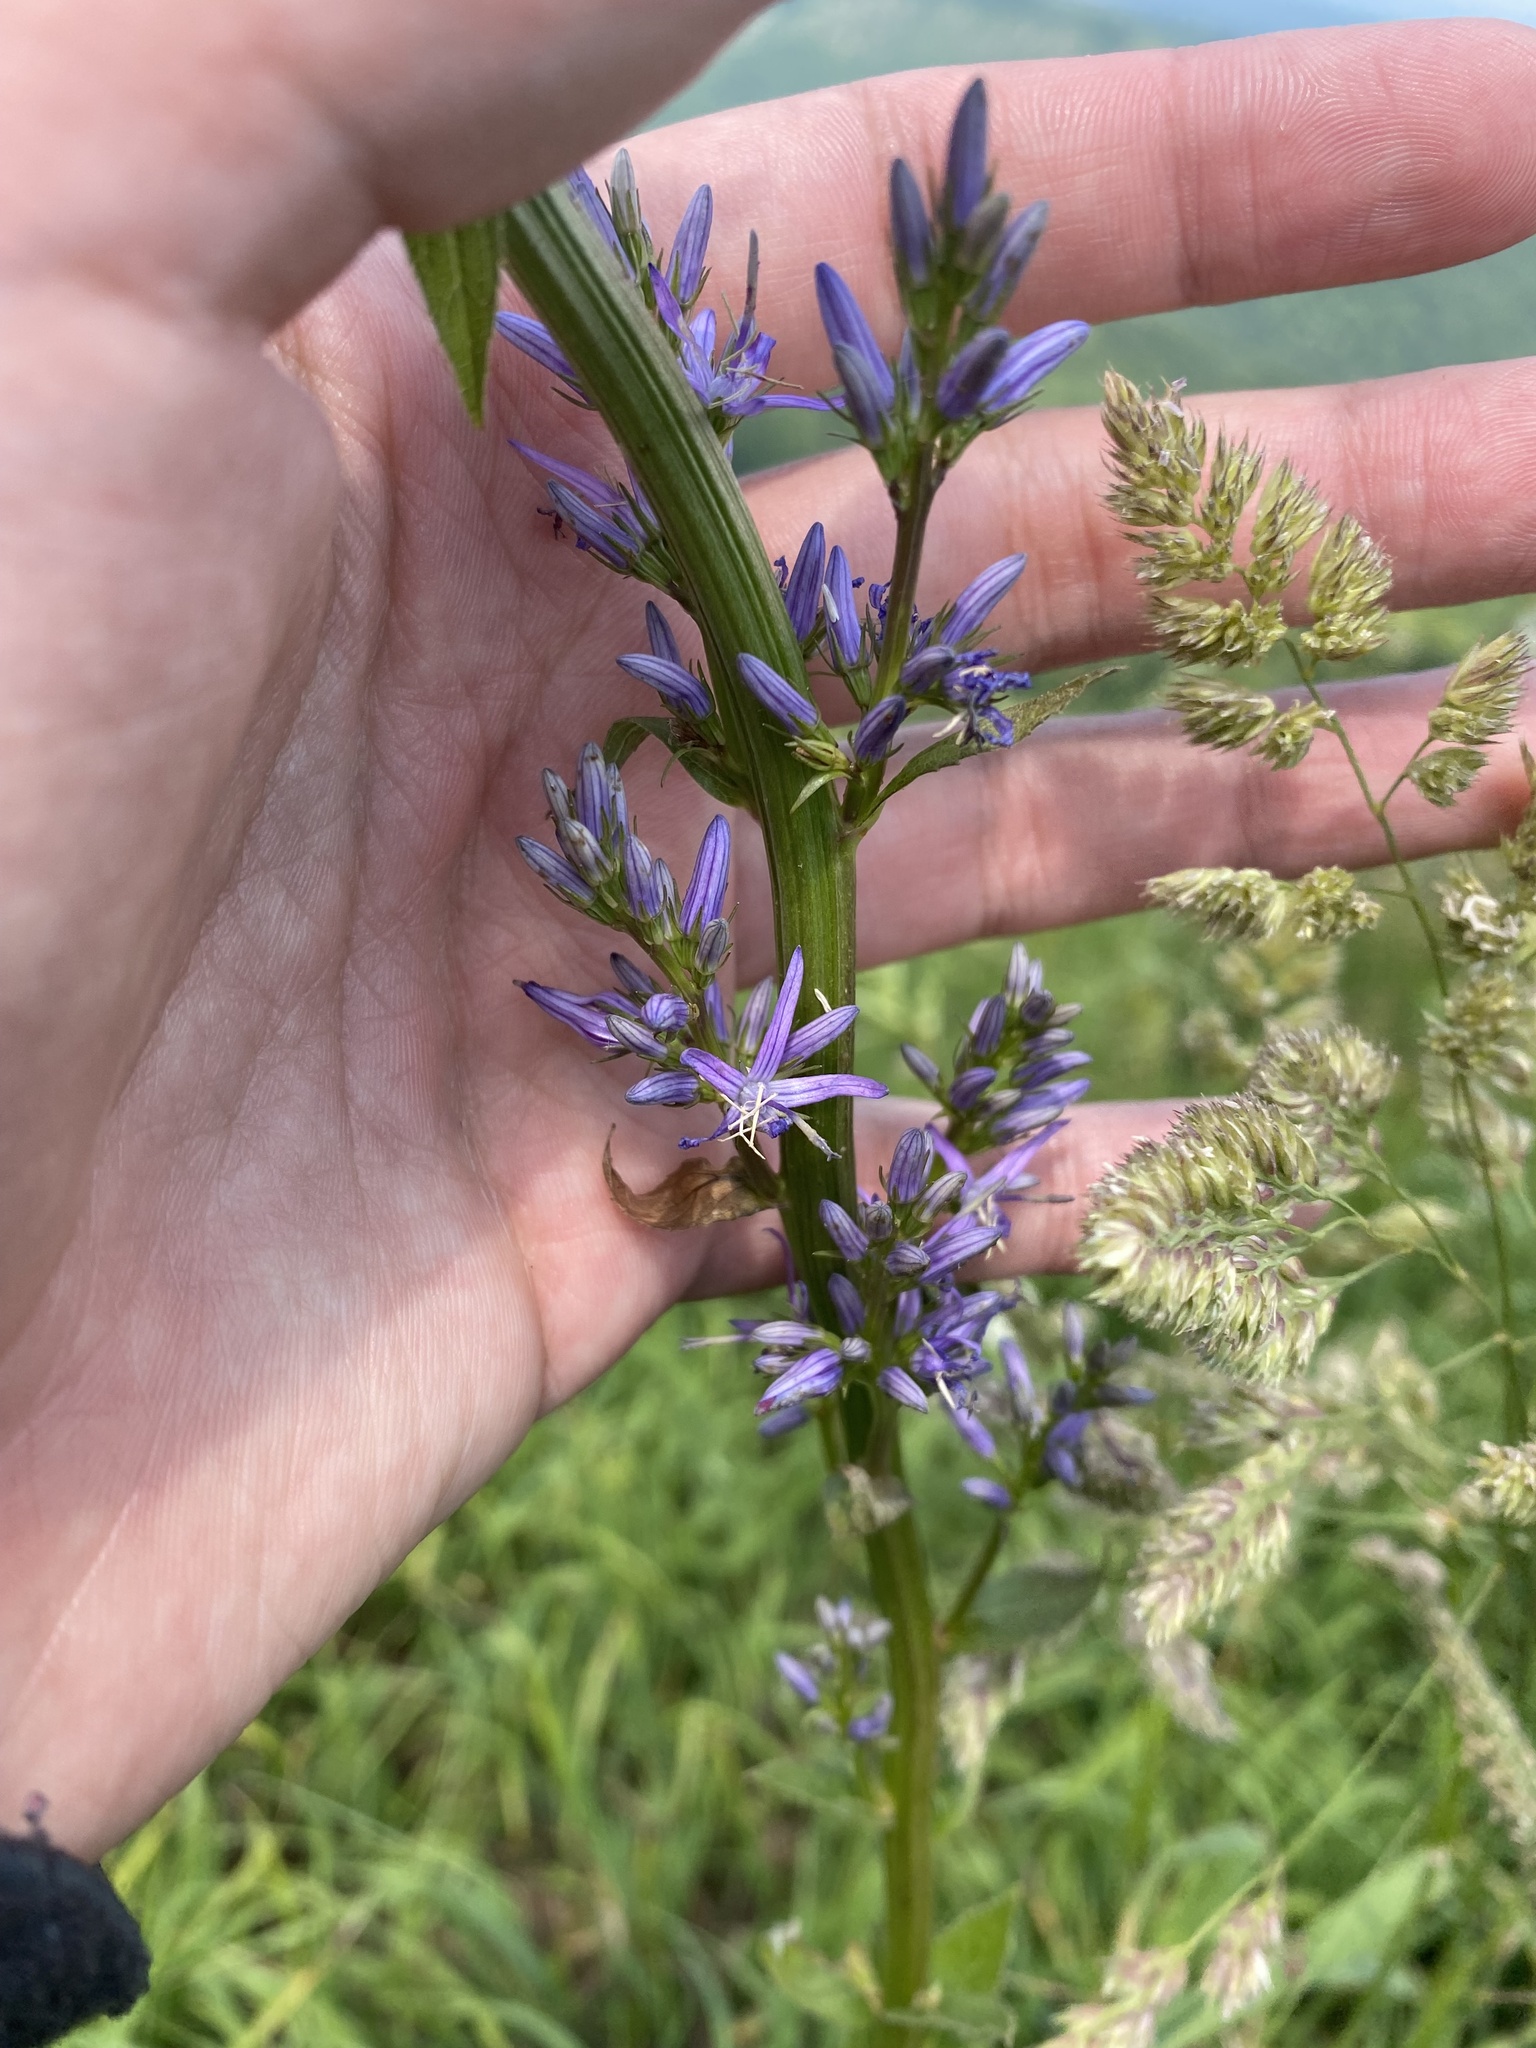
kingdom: Plantae
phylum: Tracheophyta
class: Magnoliopsida
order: Asterales
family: Campanulaceae
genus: Asyneuma
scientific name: Asyneuma campanuloides
